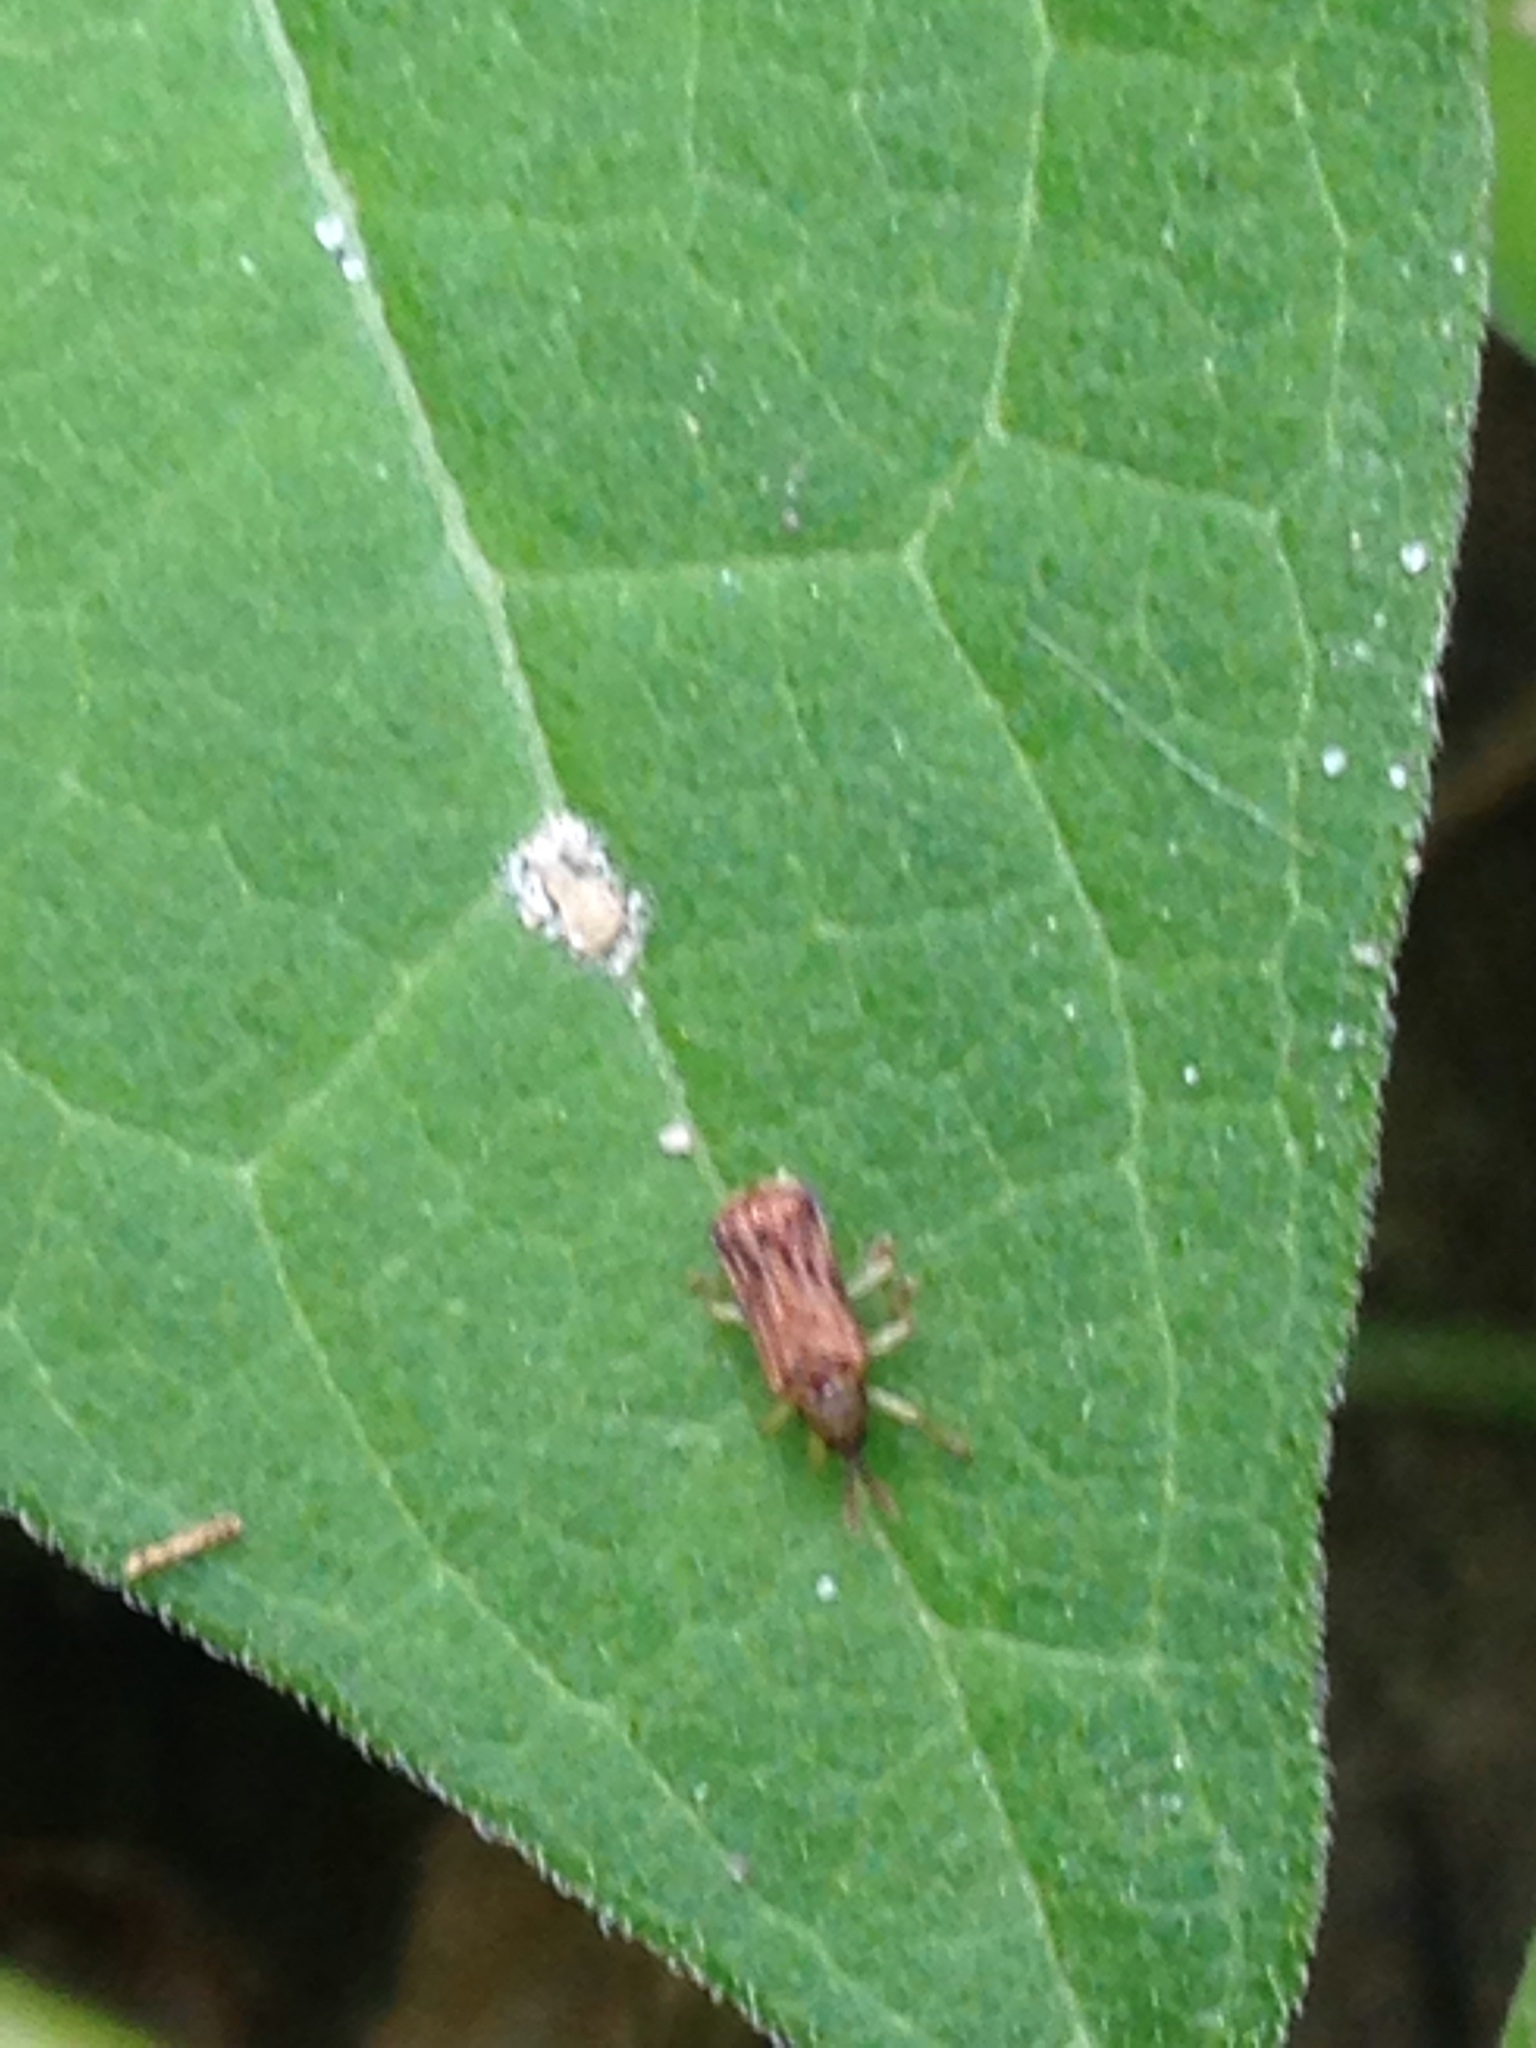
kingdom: Animalia
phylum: Arthropoda
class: Insecta
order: Coleoptera
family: Chrysomelidae
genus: Sumitrosis
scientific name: Sumitrosis rosea
